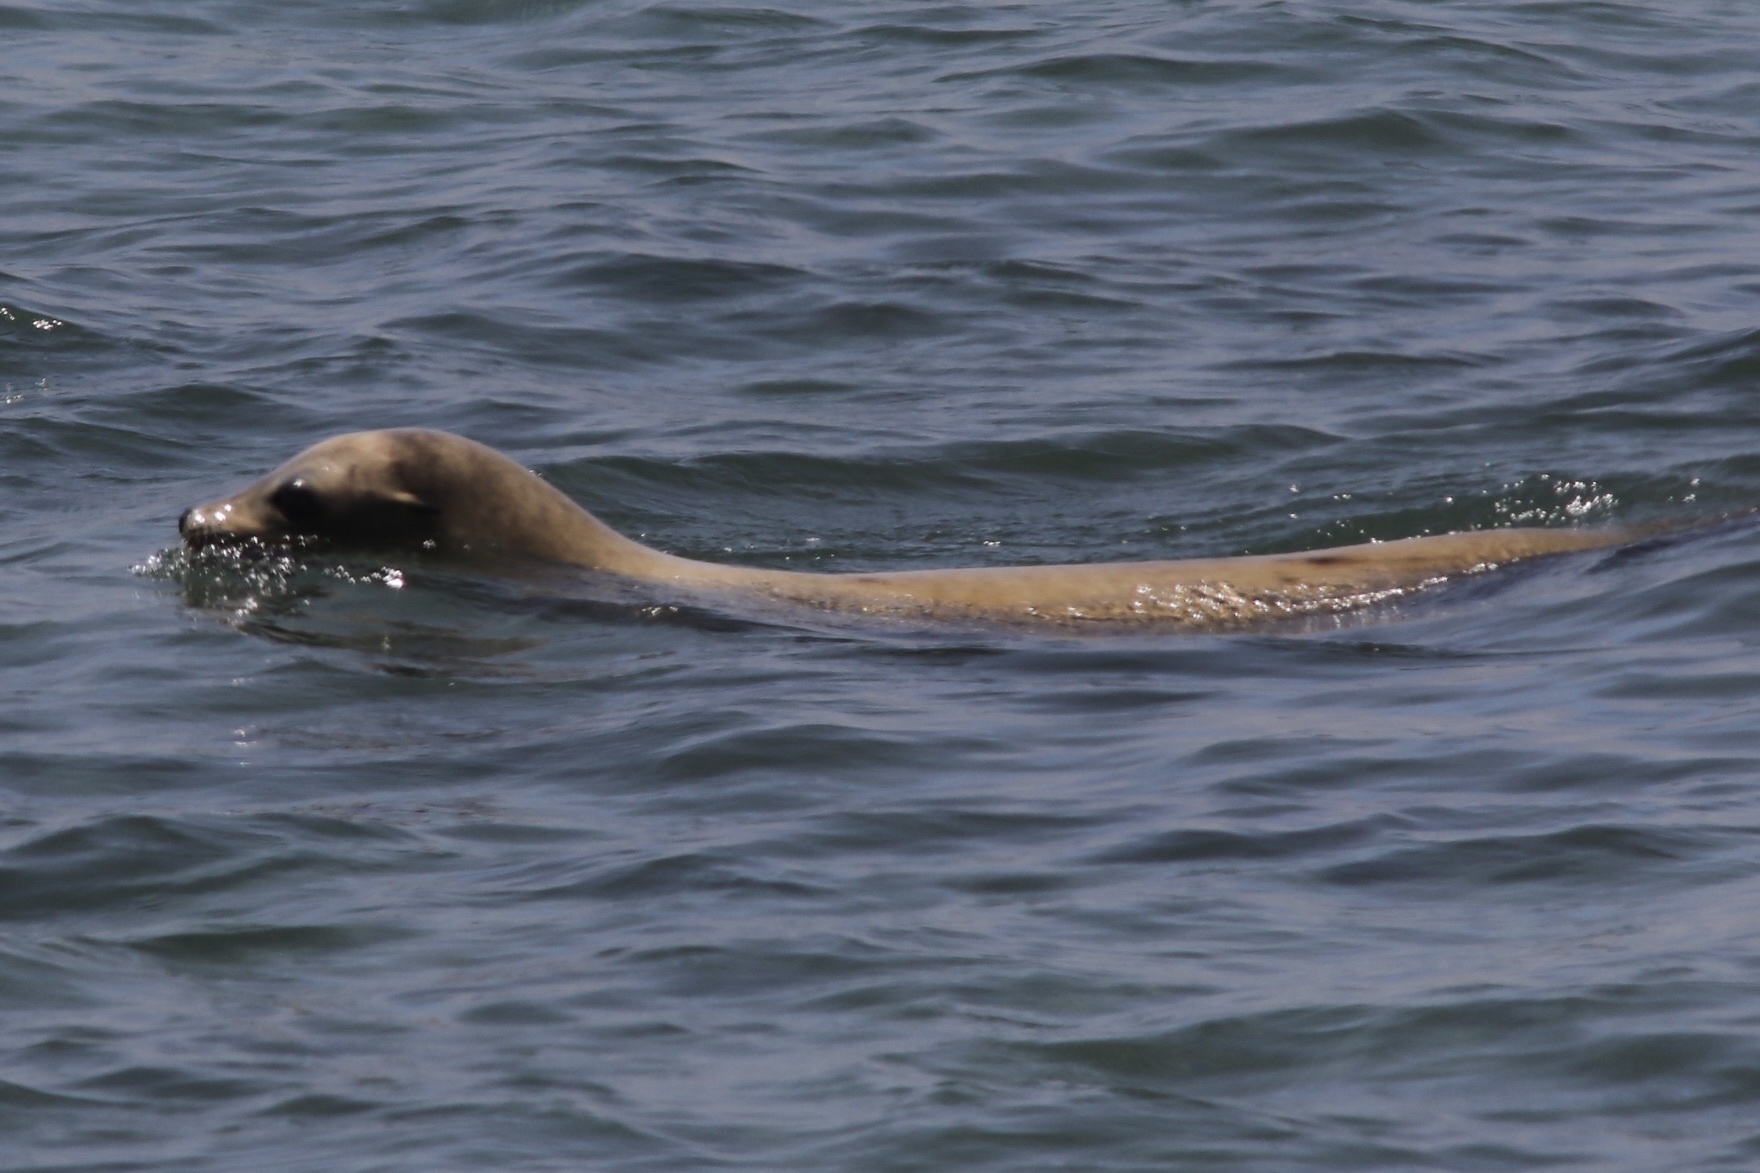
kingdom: Animalia
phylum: Chordata
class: Mammalia
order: Carnivora
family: Otariidae
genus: Zalophus
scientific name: Zalophus californianus
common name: California sea lion
